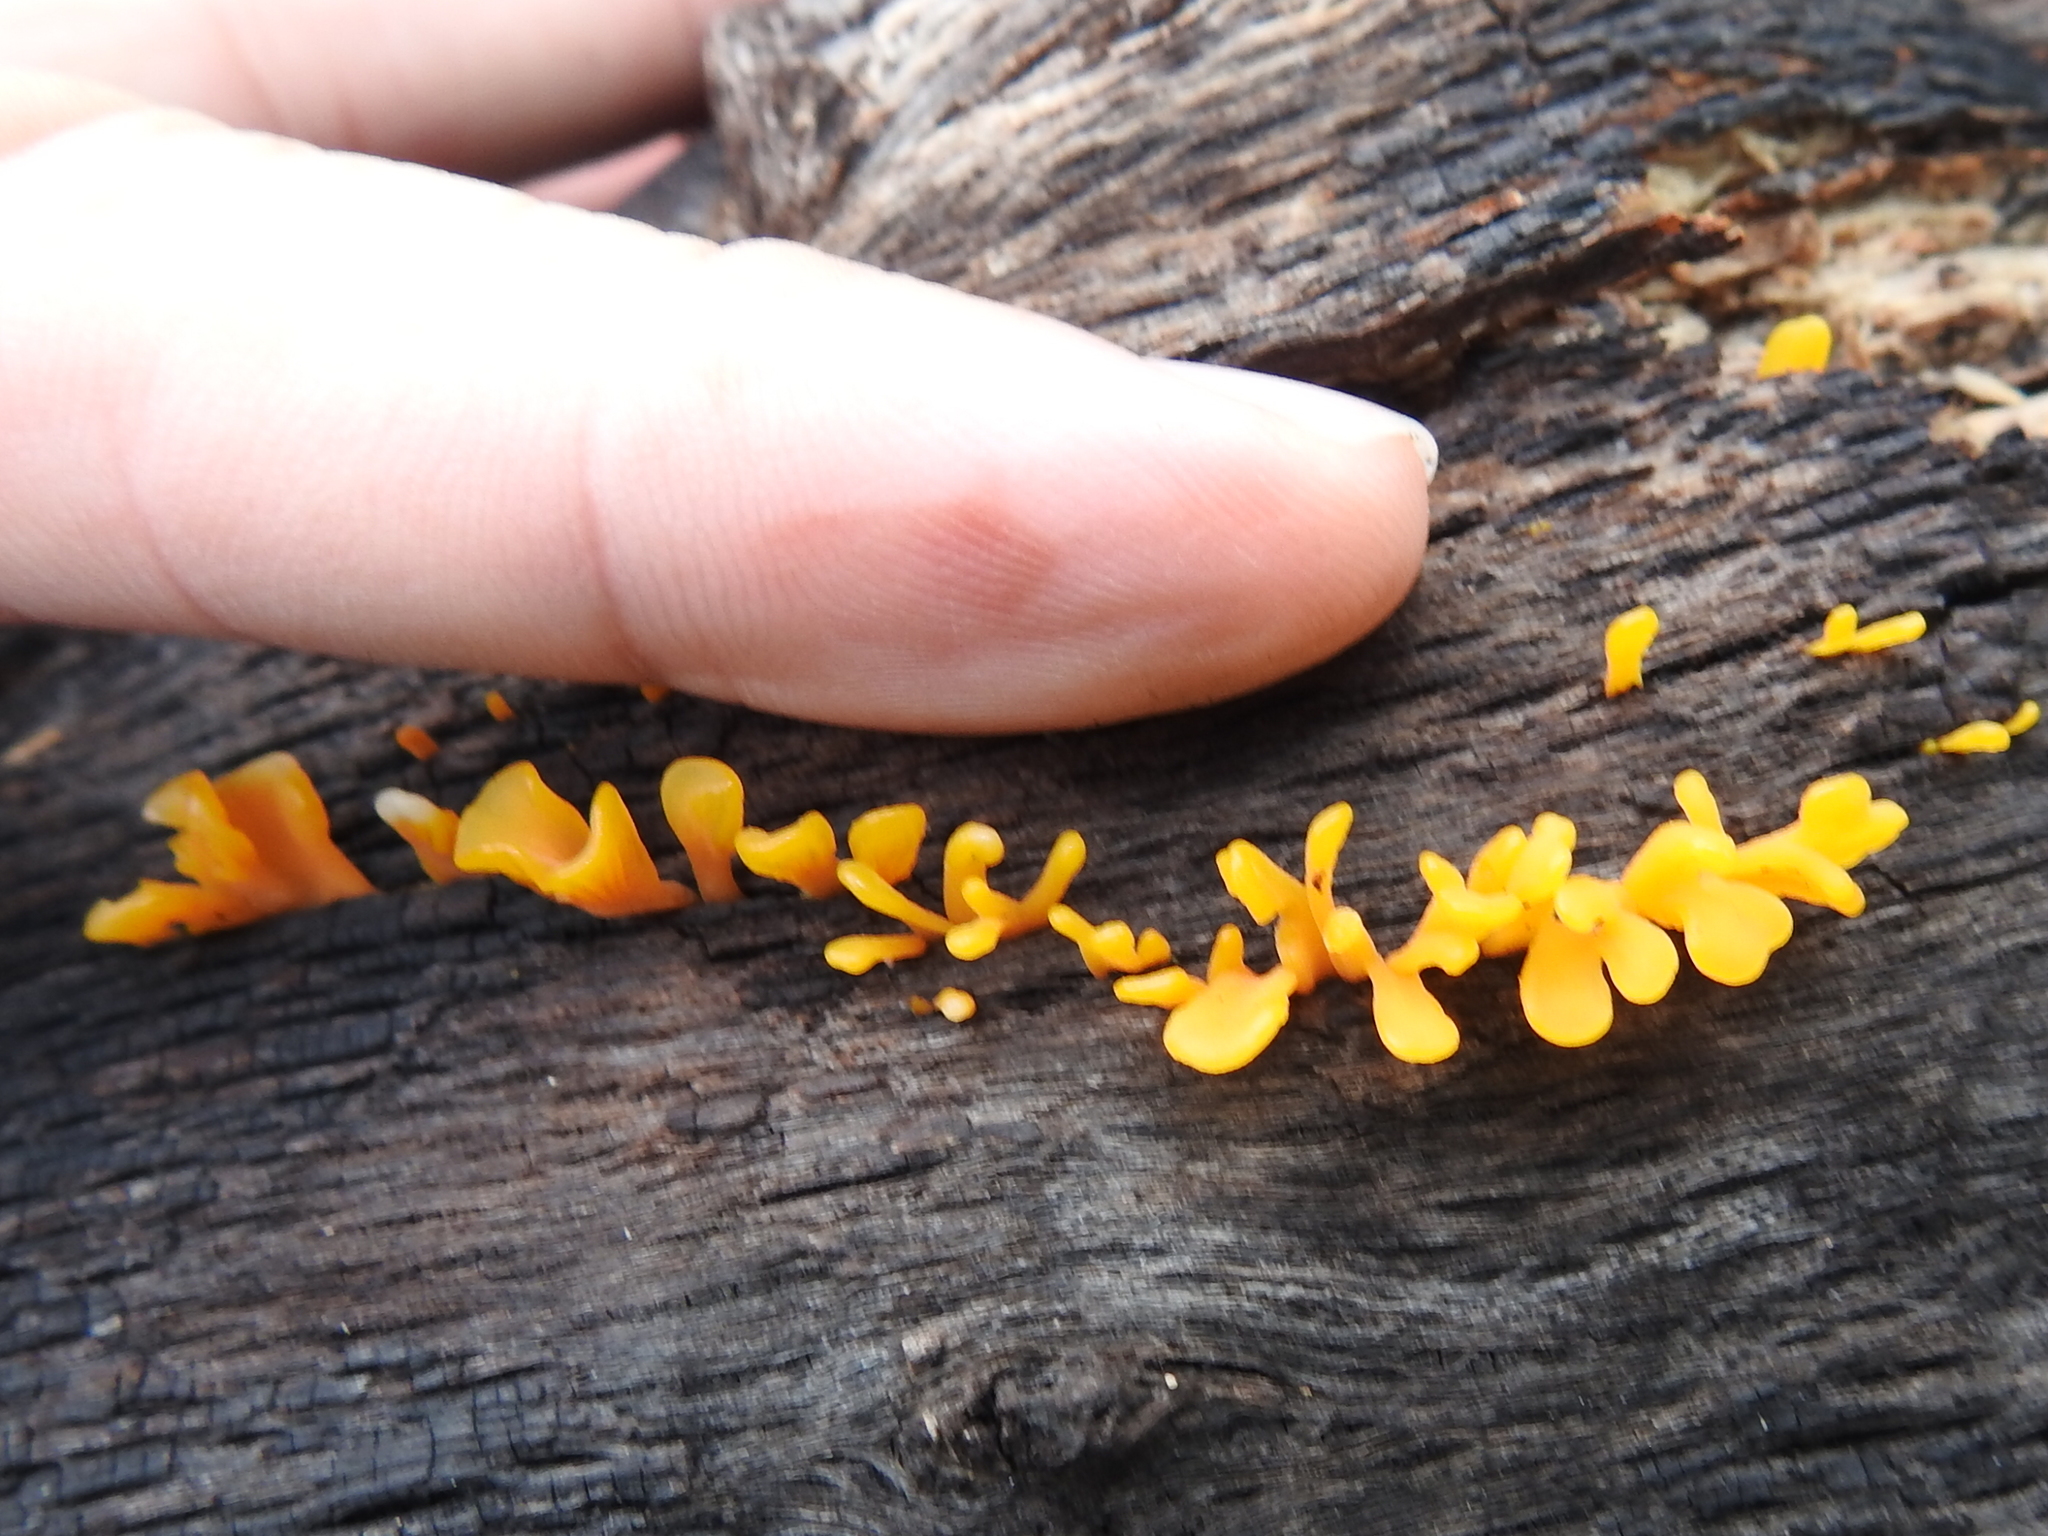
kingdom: Fungi
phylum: Basidiomycota
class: Dacrymycetes
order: Dacrymycetales
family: Dacrymycetaceae
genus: Dacrymyces
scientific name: Dacrymyces spathularius
